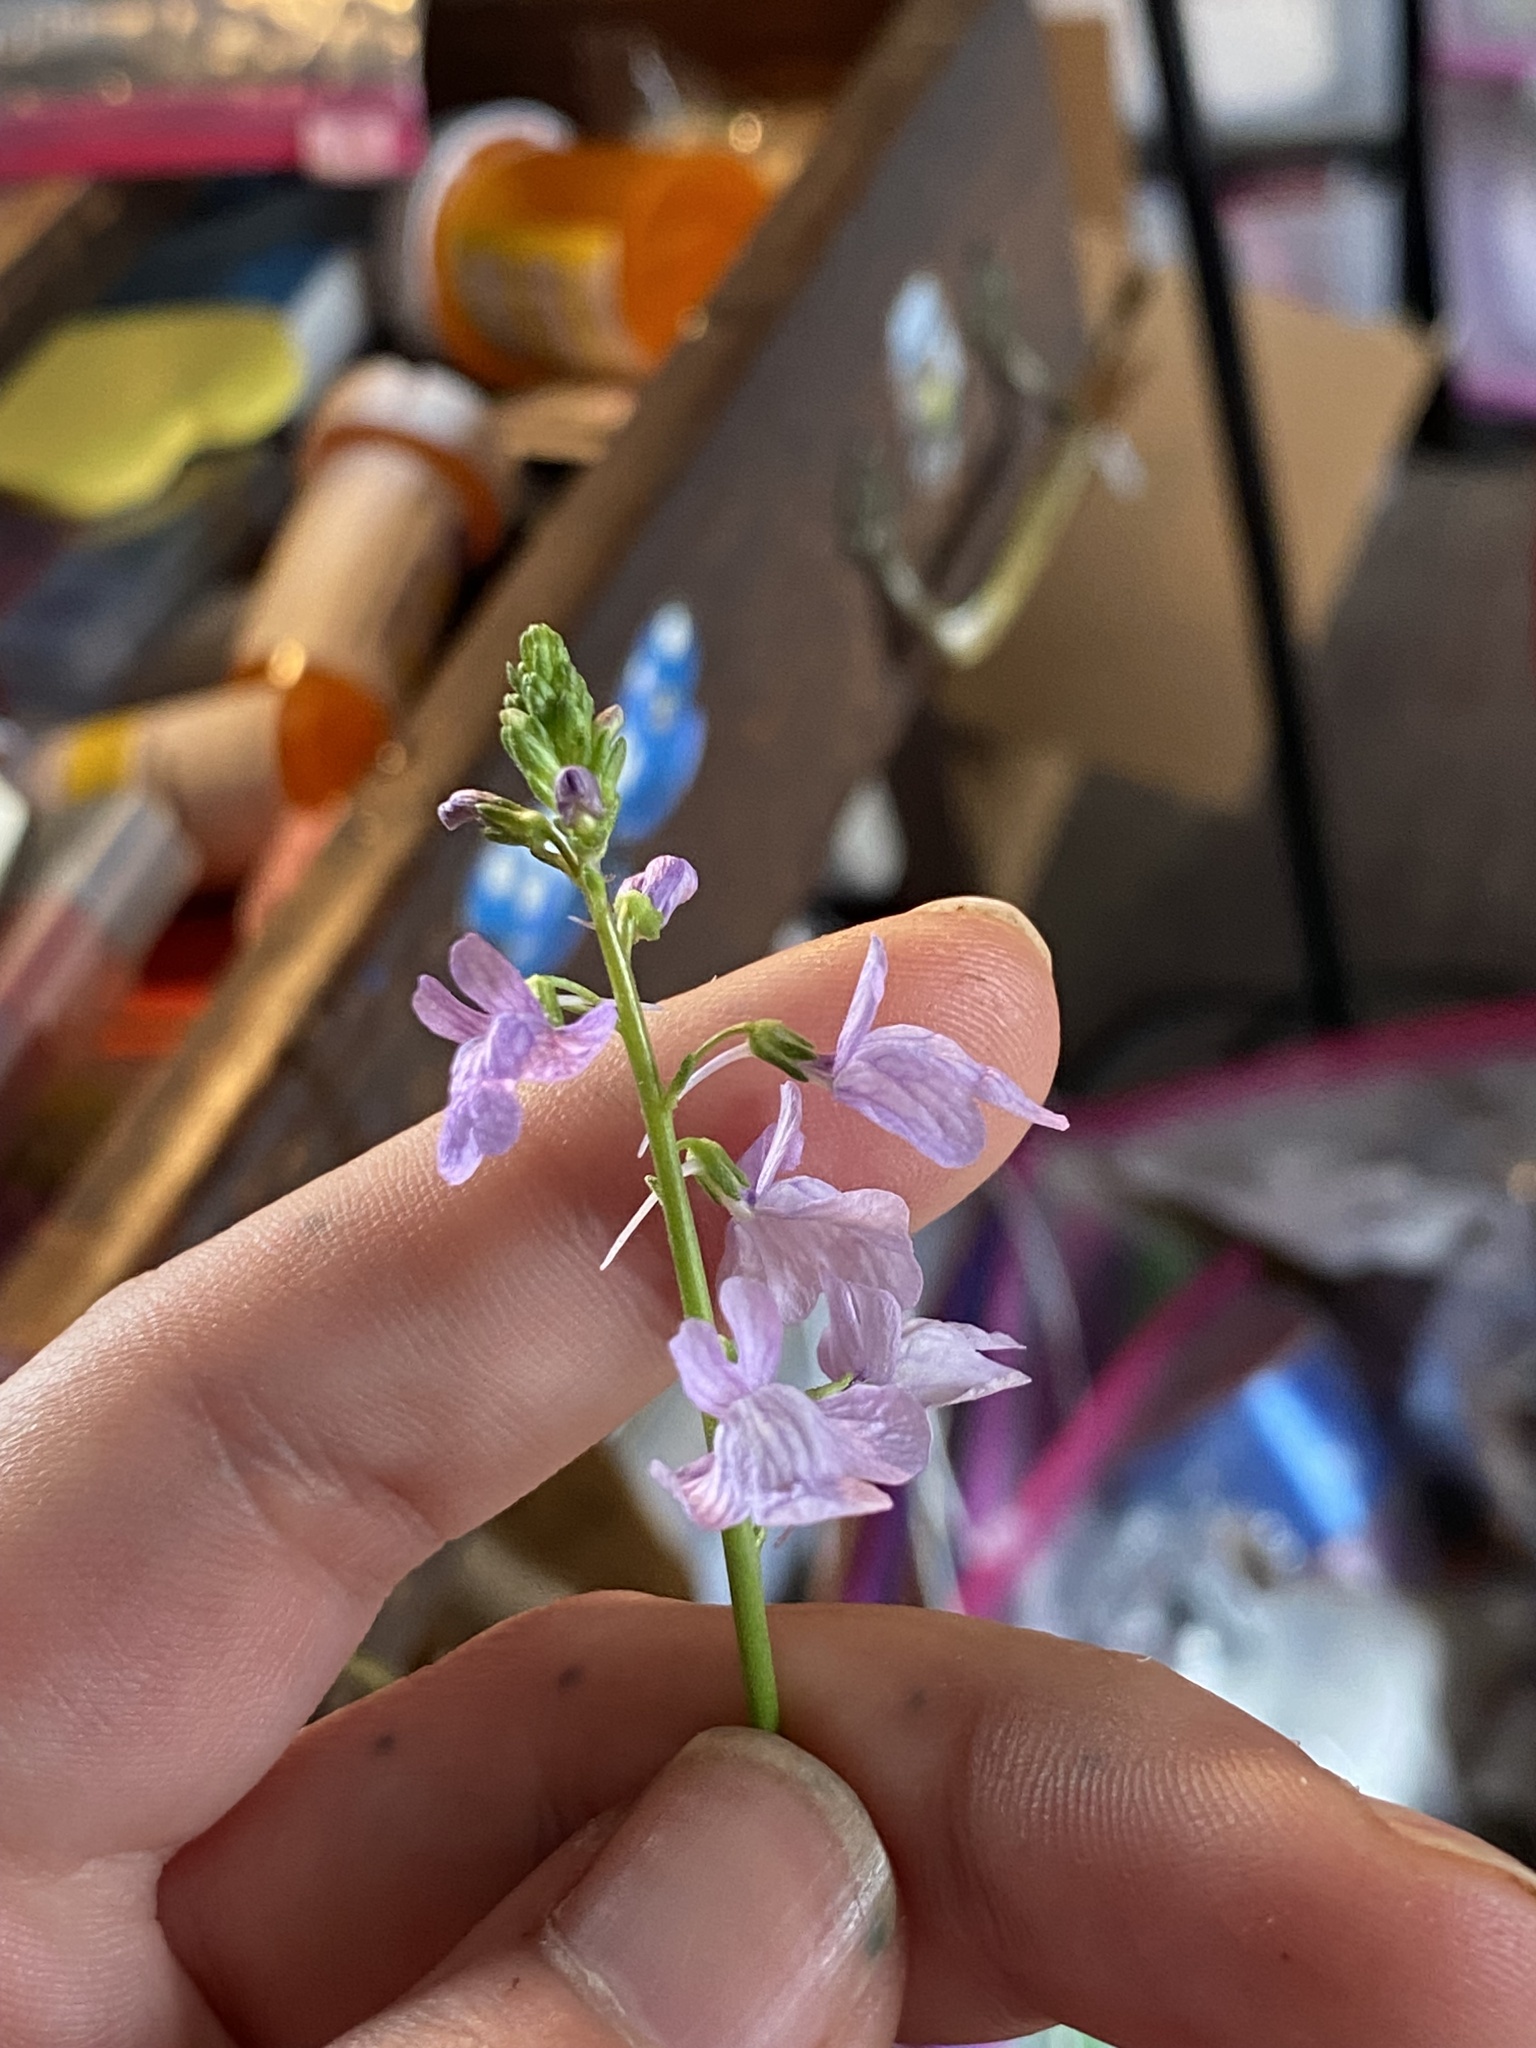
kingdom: Plantae
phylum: Tracheophyta
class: Magnoliopsida
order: Lamiales
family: Plantaginaceae
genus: Nuttallanthus
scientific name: Nuttallanthus texanus
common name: Texas toadflax
